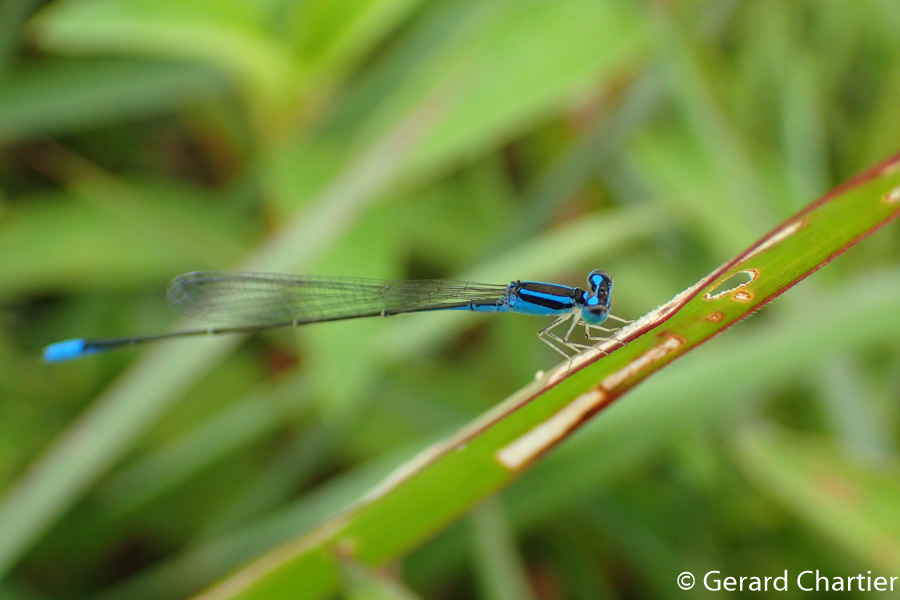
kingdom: Animalia
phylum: Arthropoda
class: Insecta
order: Odonata
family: Coenagrionidae
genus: Aciagrion
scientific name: Aciagrion hisopa
